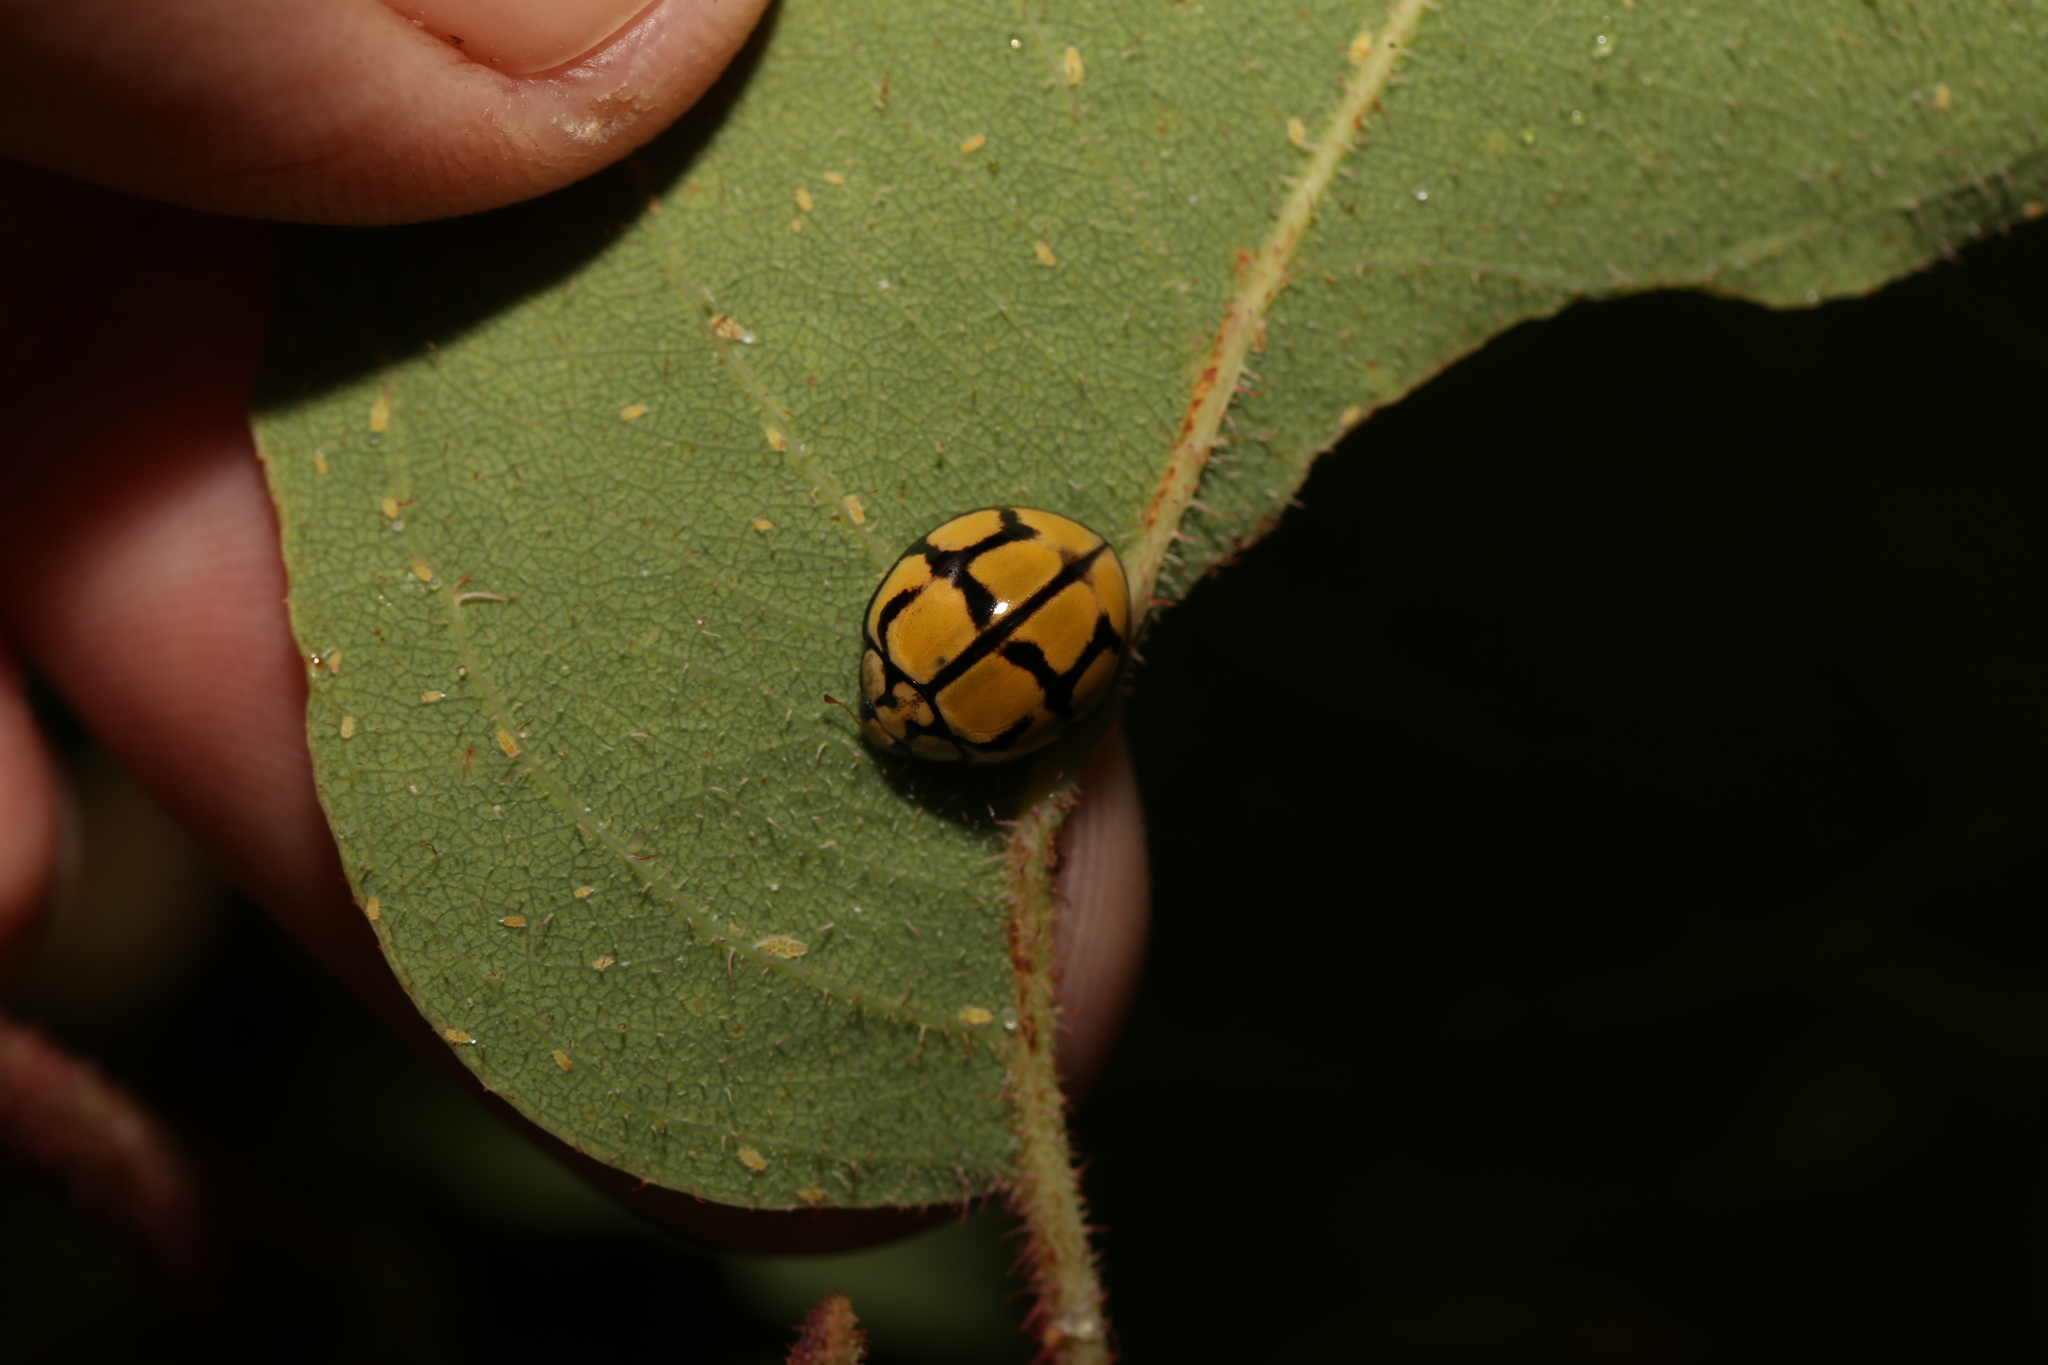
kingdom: Animalia
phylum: Arthropoda
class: Insecta
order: Coleoptera
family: Coccinellidae
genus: Harmonia
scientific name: Harmonia
